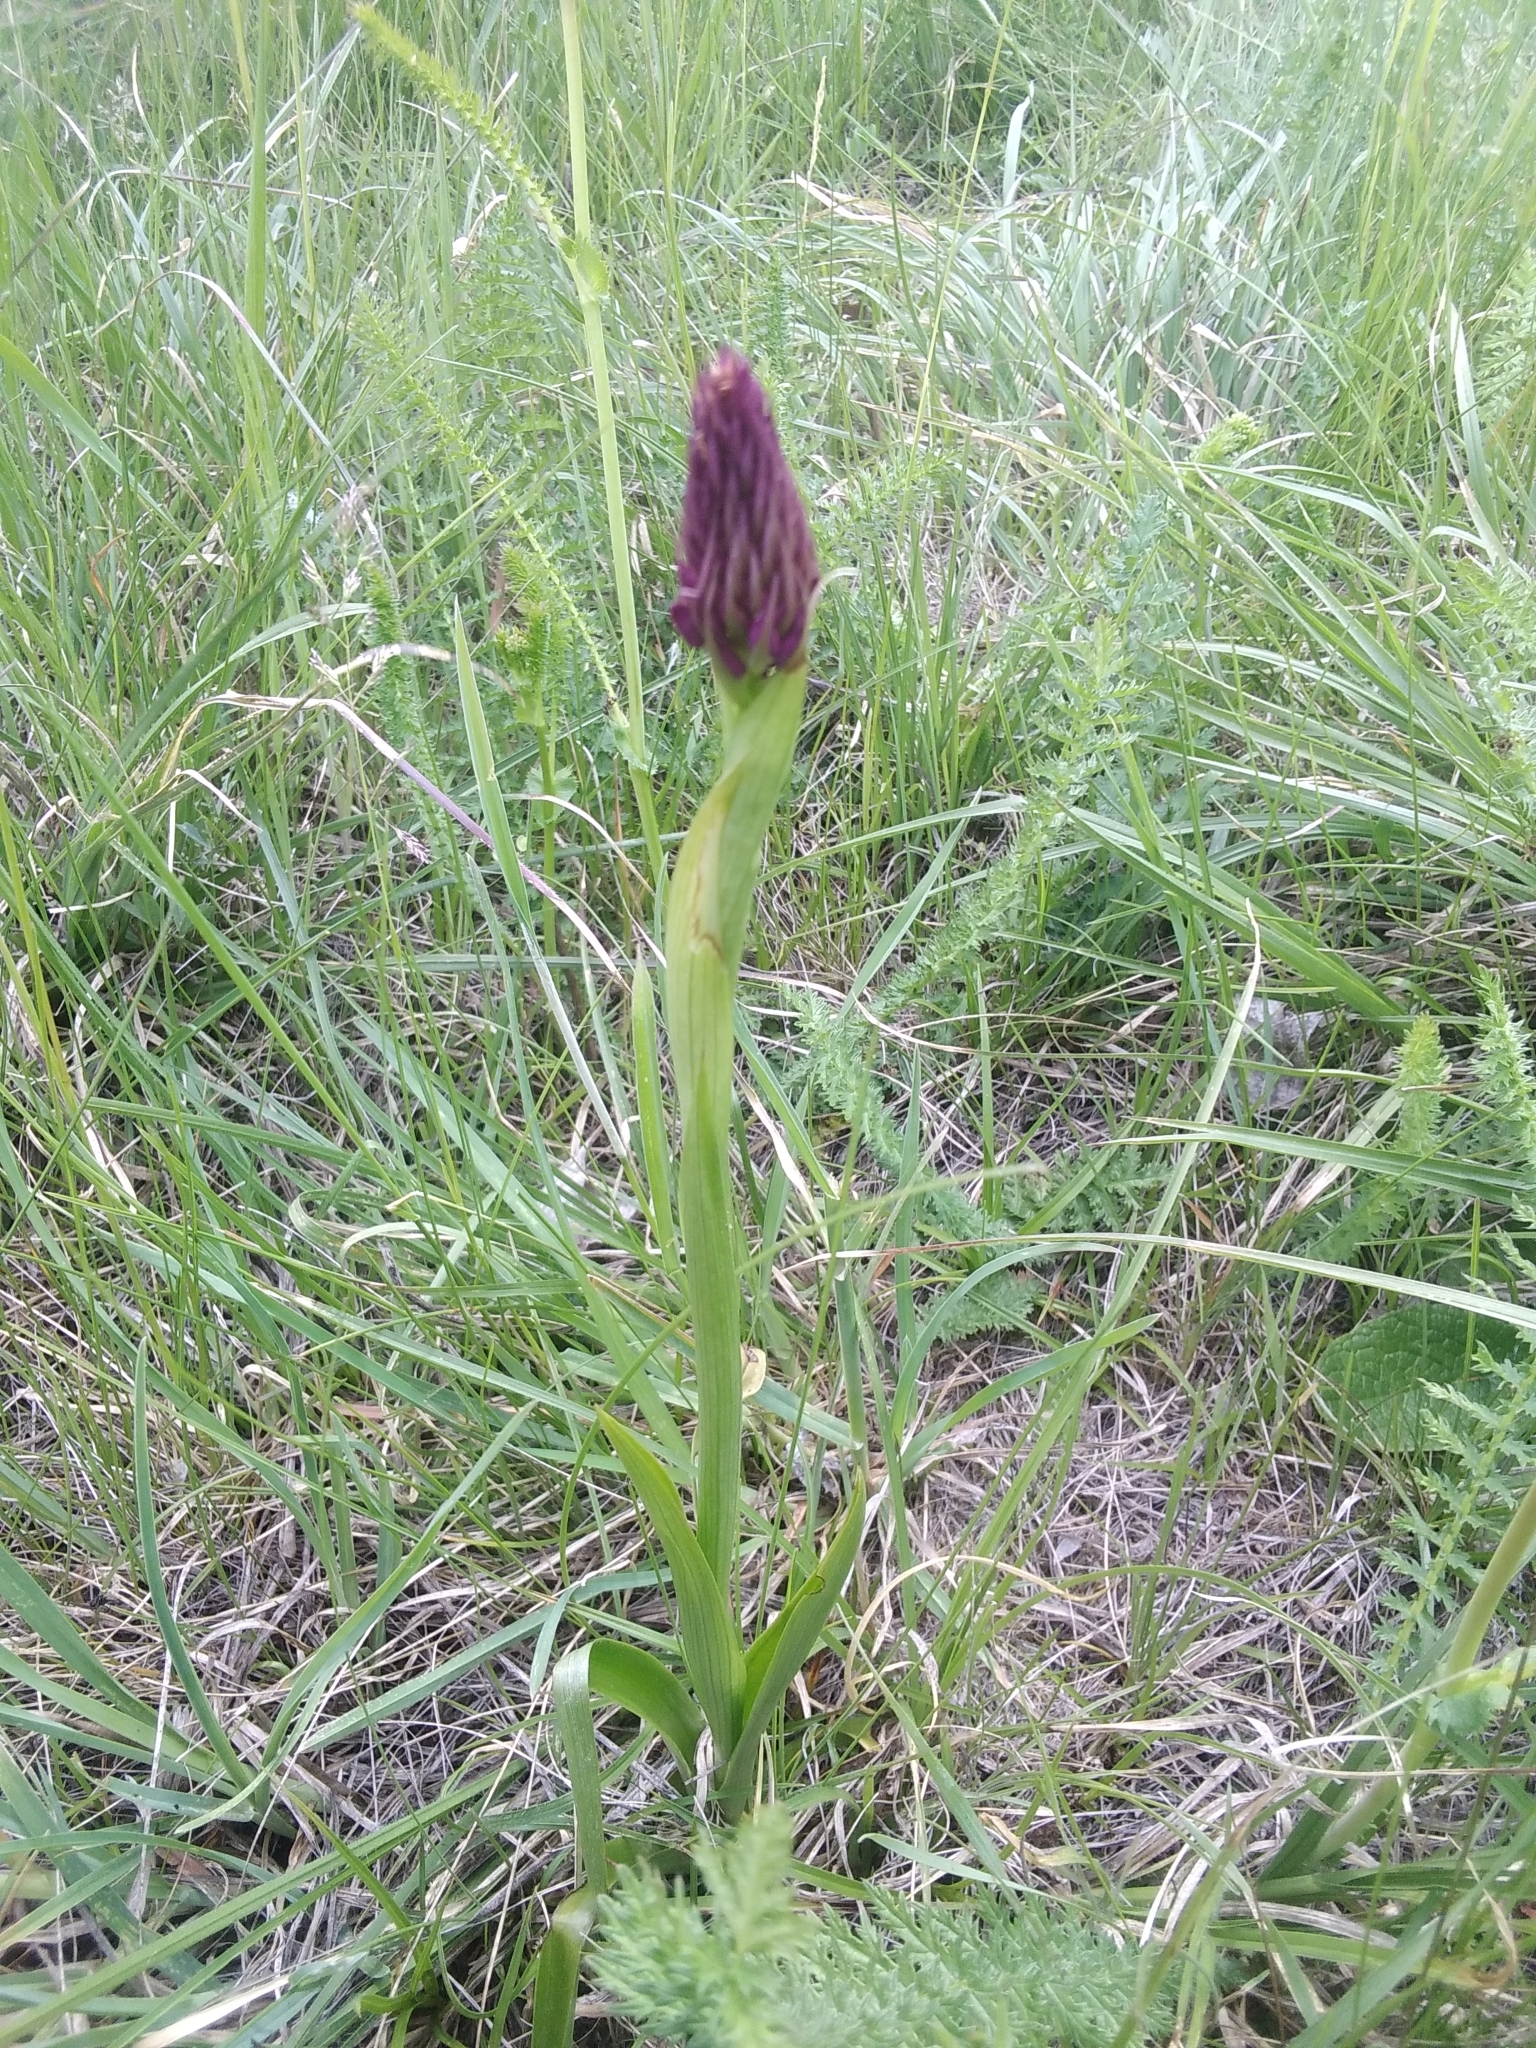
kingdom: Plantae
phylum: Tracheophyta
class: Liliopsida
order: Asparagales
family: Orchidaceae
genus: Anacamptis
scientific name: Anacamptis pyramidalis
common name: Pyramidal orchid
